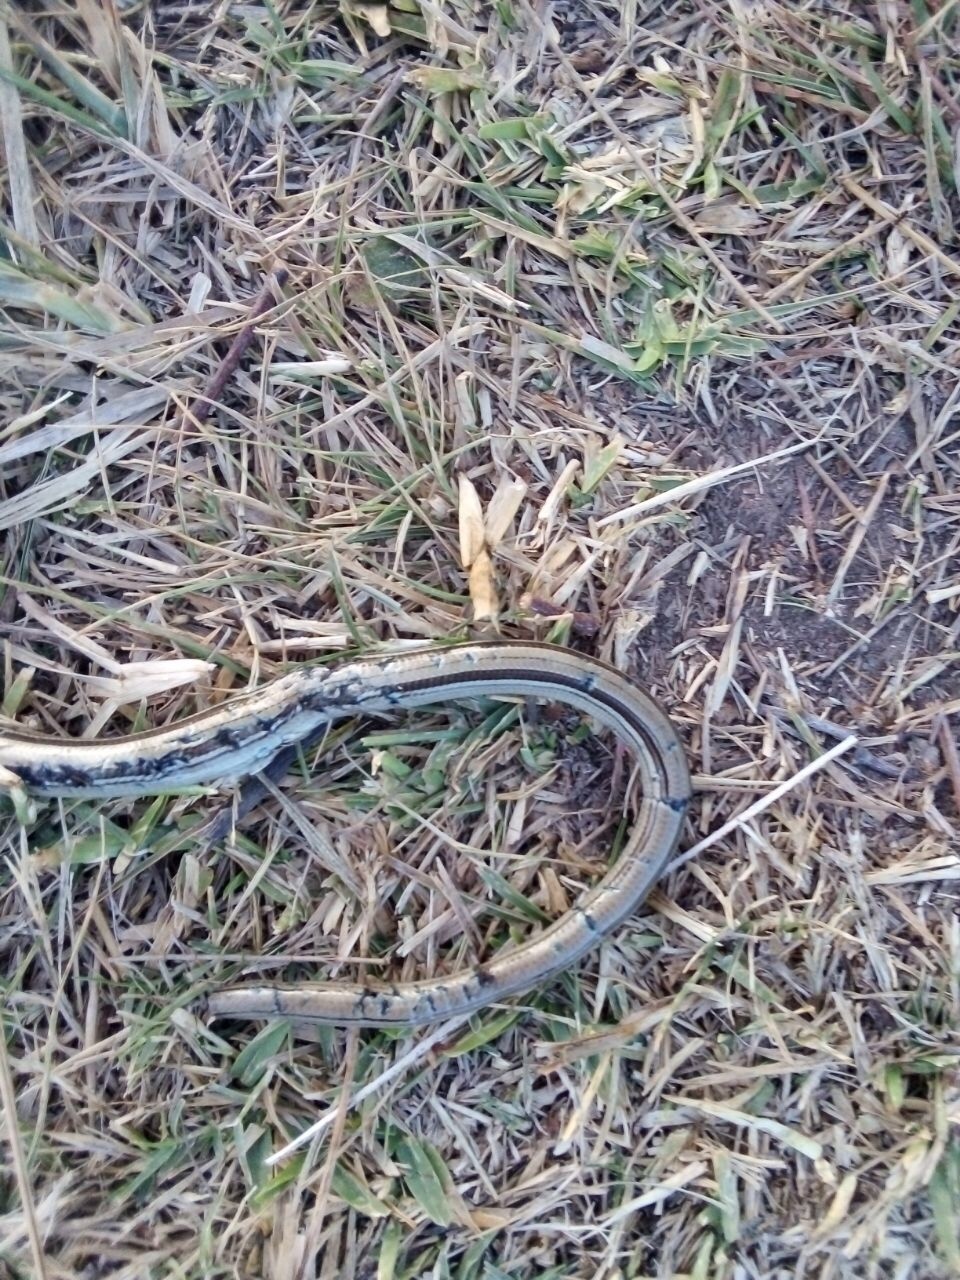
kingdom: Animalia
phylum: Chordata
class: Squamata
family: Diploglossidae
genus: Ophiodes
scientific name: Ophiodes vertebralis
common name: Jointed worm lizard
